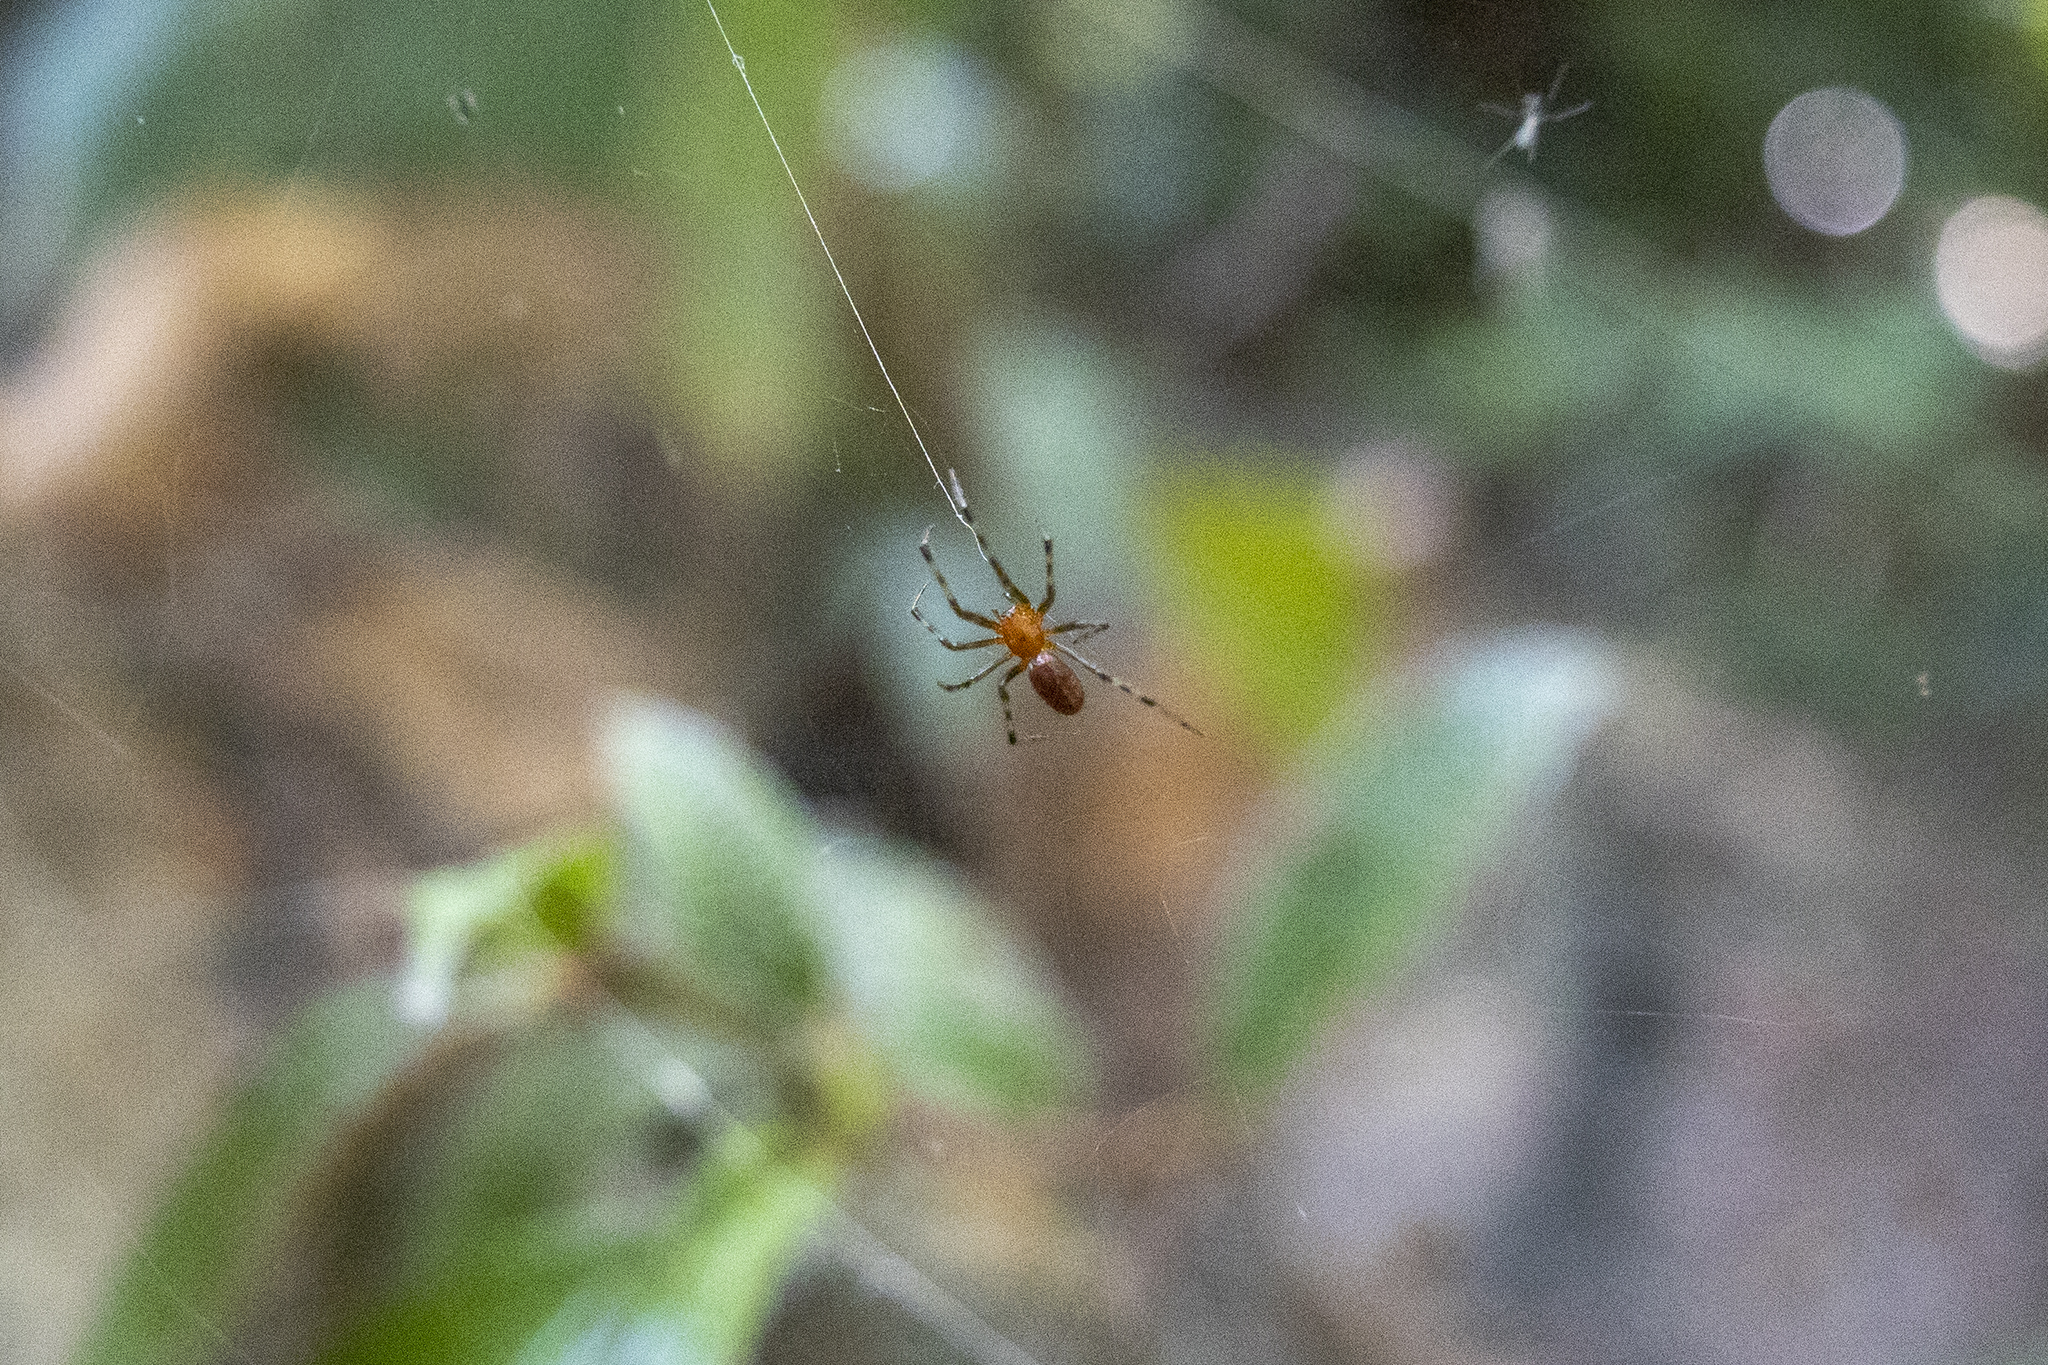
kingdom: Animalia
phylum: Arthropoda
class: Arachnida
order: Araneae
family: Theridiidae
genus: Anelosimus
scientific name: Anelosimus eximius
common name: Cobweb spiders
